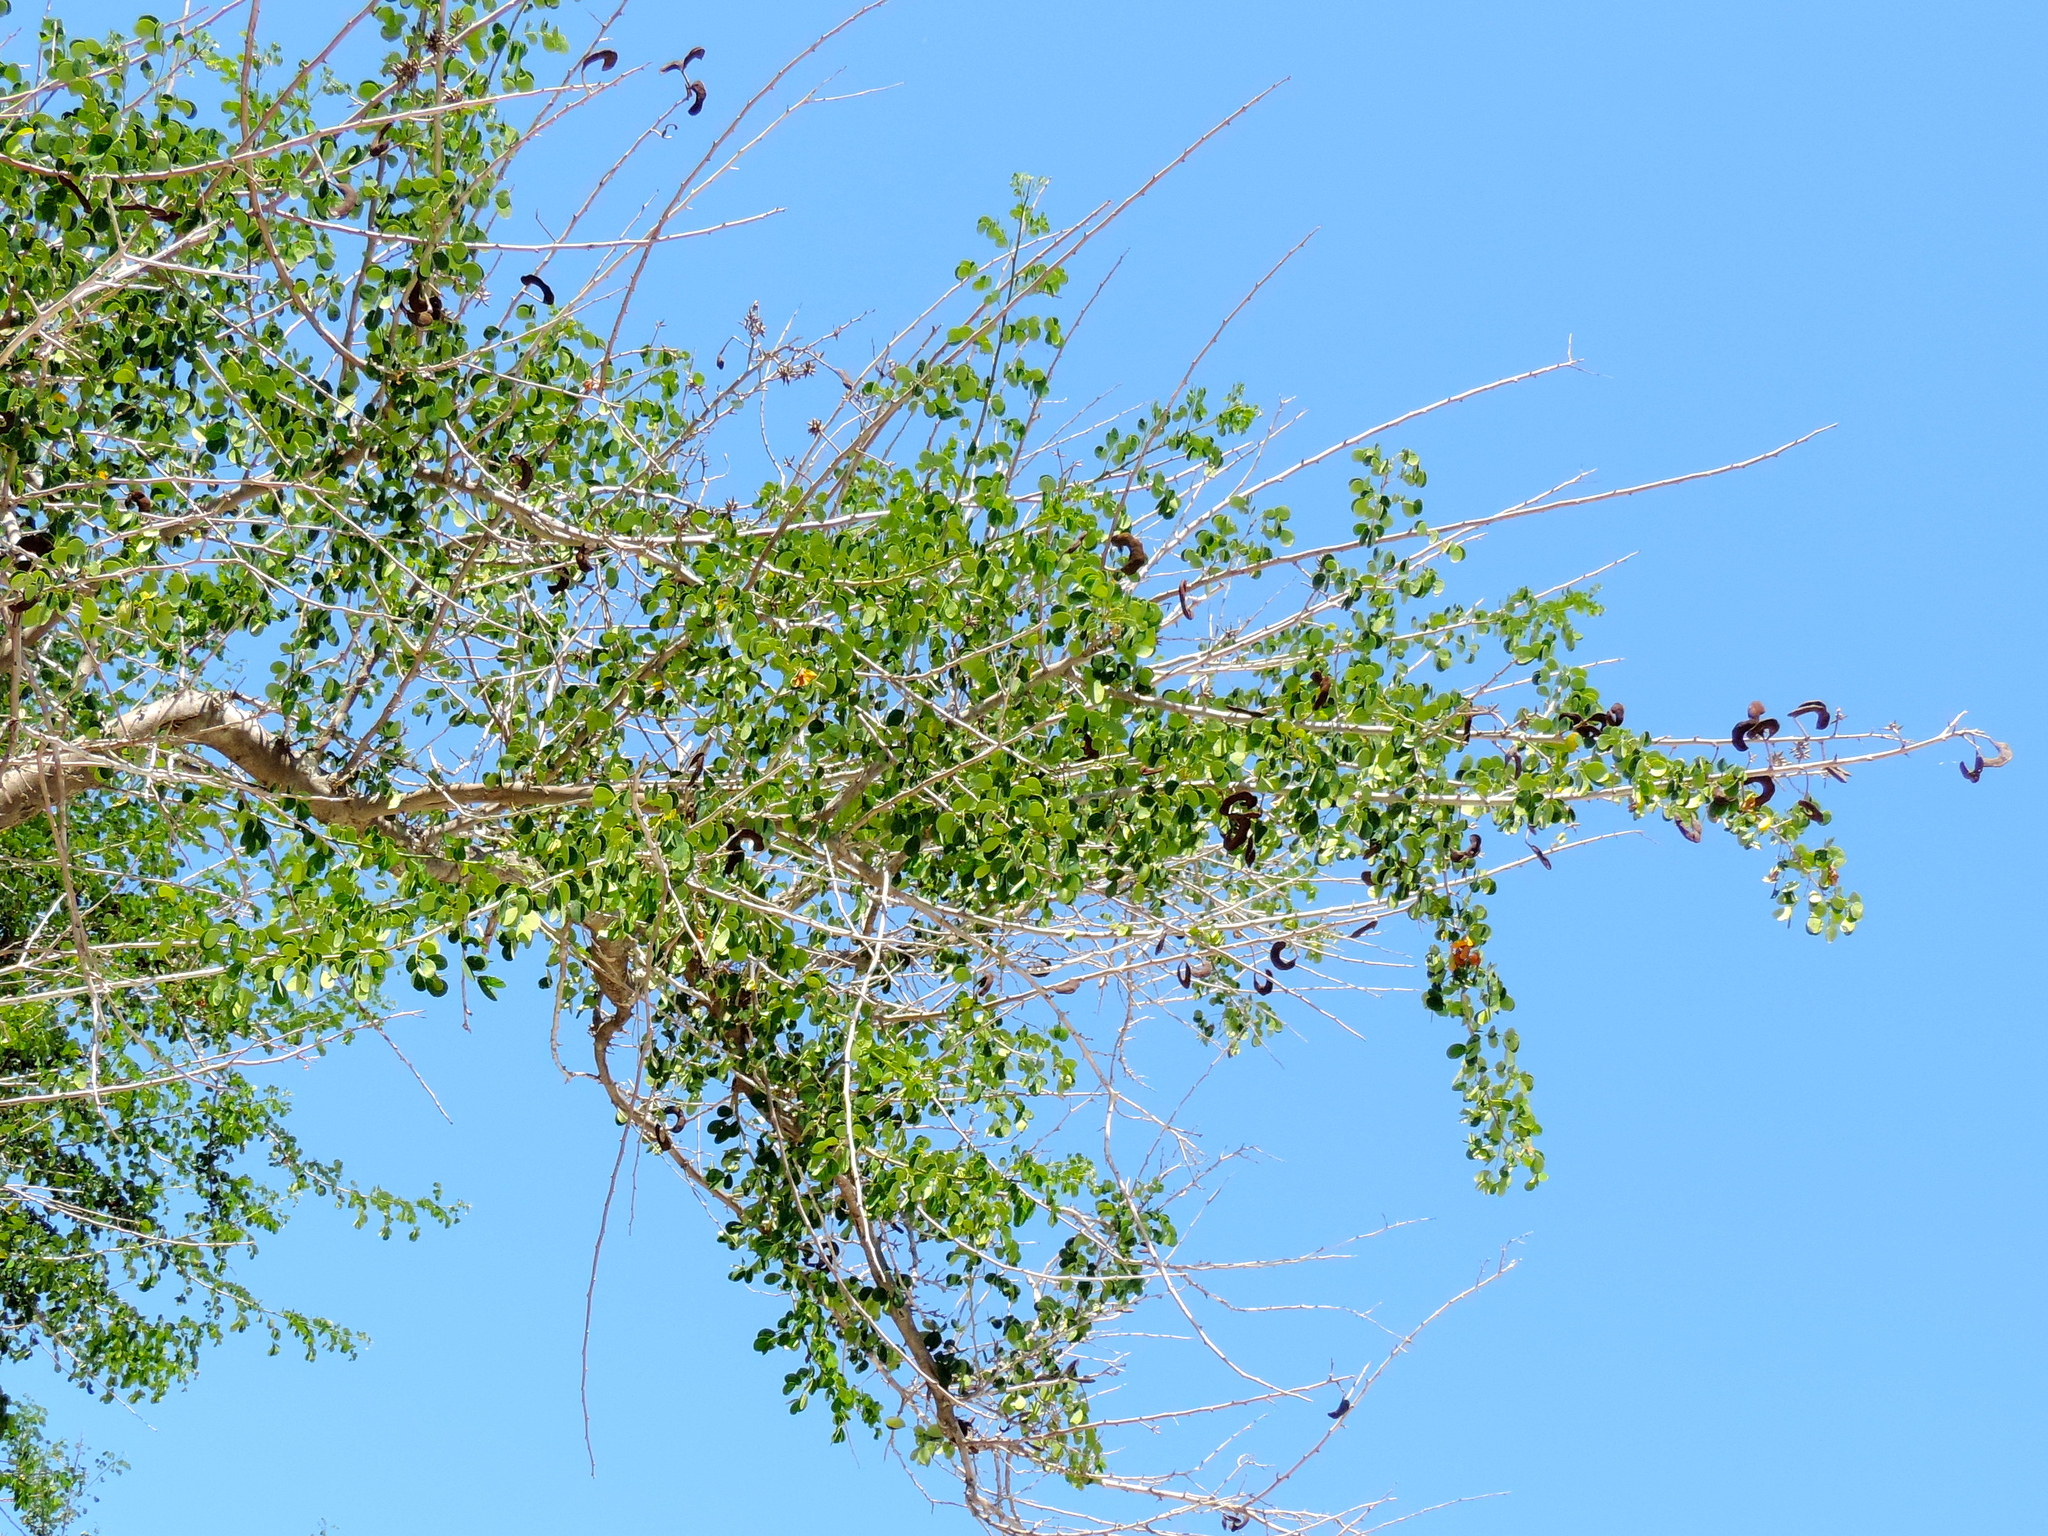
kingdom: Plantae
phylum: Tracheophyta
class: Magnoliopsida
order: Fabales
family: Fabaceae
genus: Microlobius
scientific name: Microlobius foetidus
